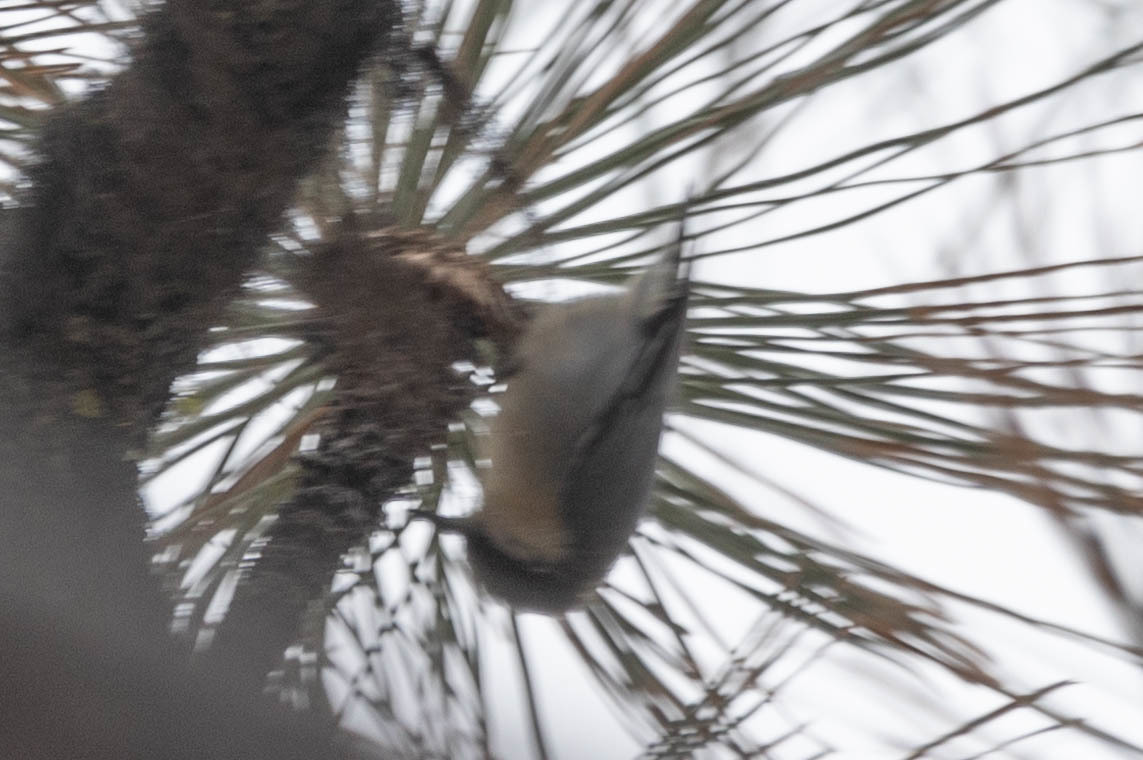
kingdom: Animalia
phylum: Chordata
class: Aves
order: Passeriformes
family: Sittidae
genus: Sitta
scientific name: Sitta pygmaea
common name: Pygmy nuthatch
